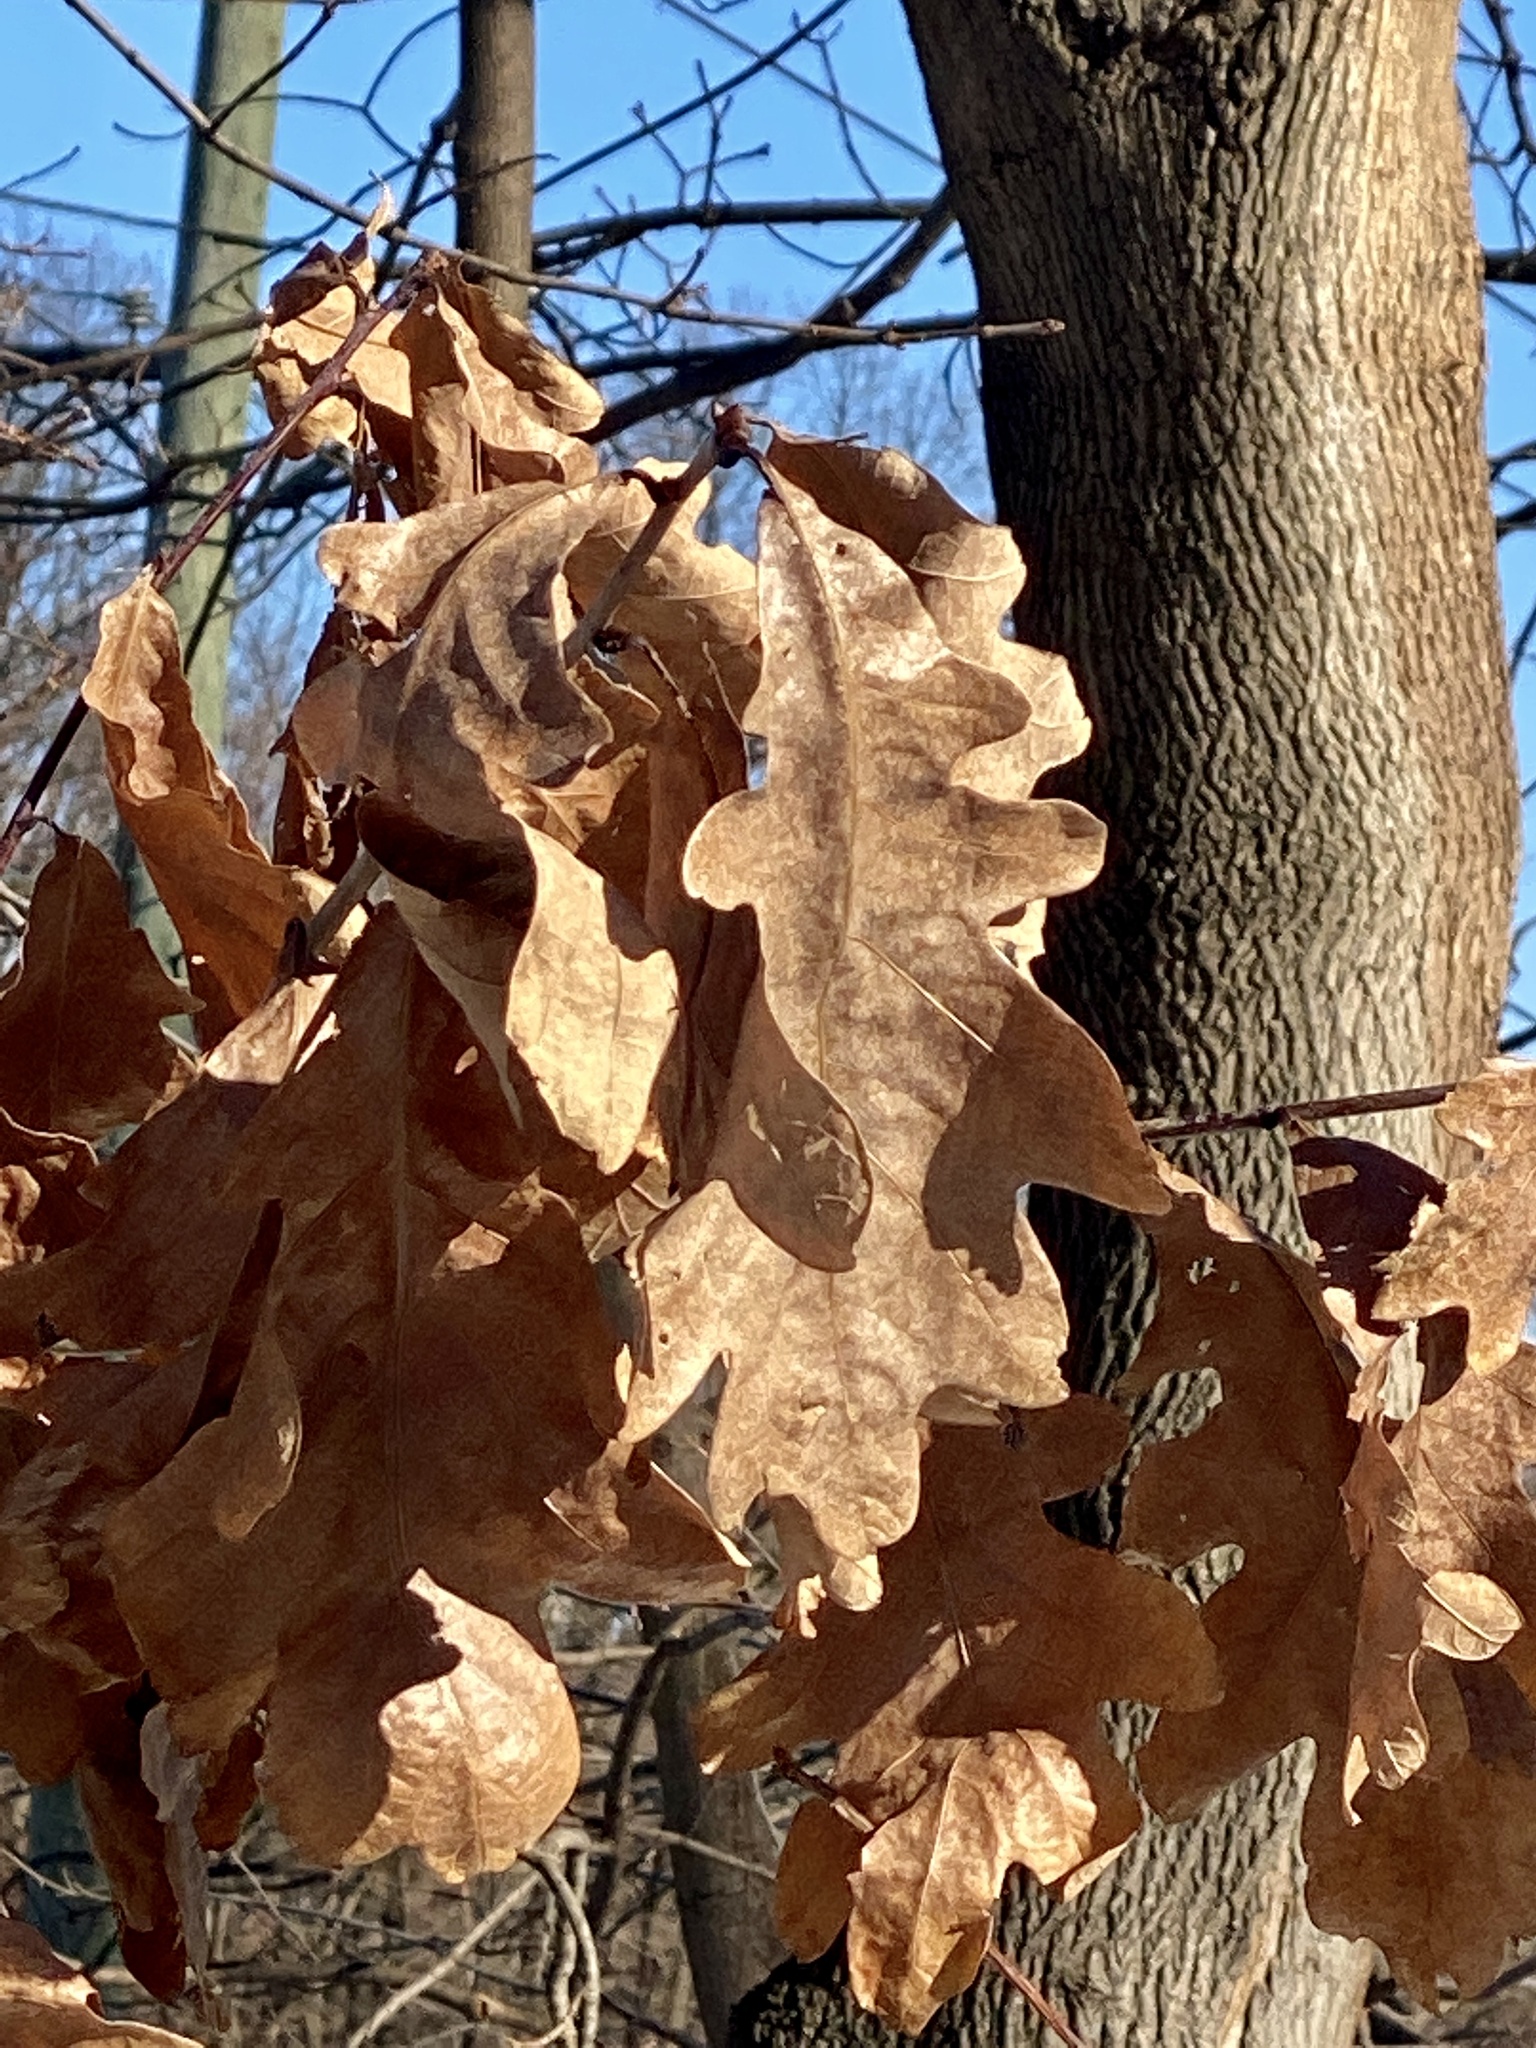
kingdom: Plantae
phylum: Tracheophyta
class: Magnoliopsida
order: Fagales
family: Fagaceae
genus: Quercus
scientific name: Quercus alba
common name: White oak
